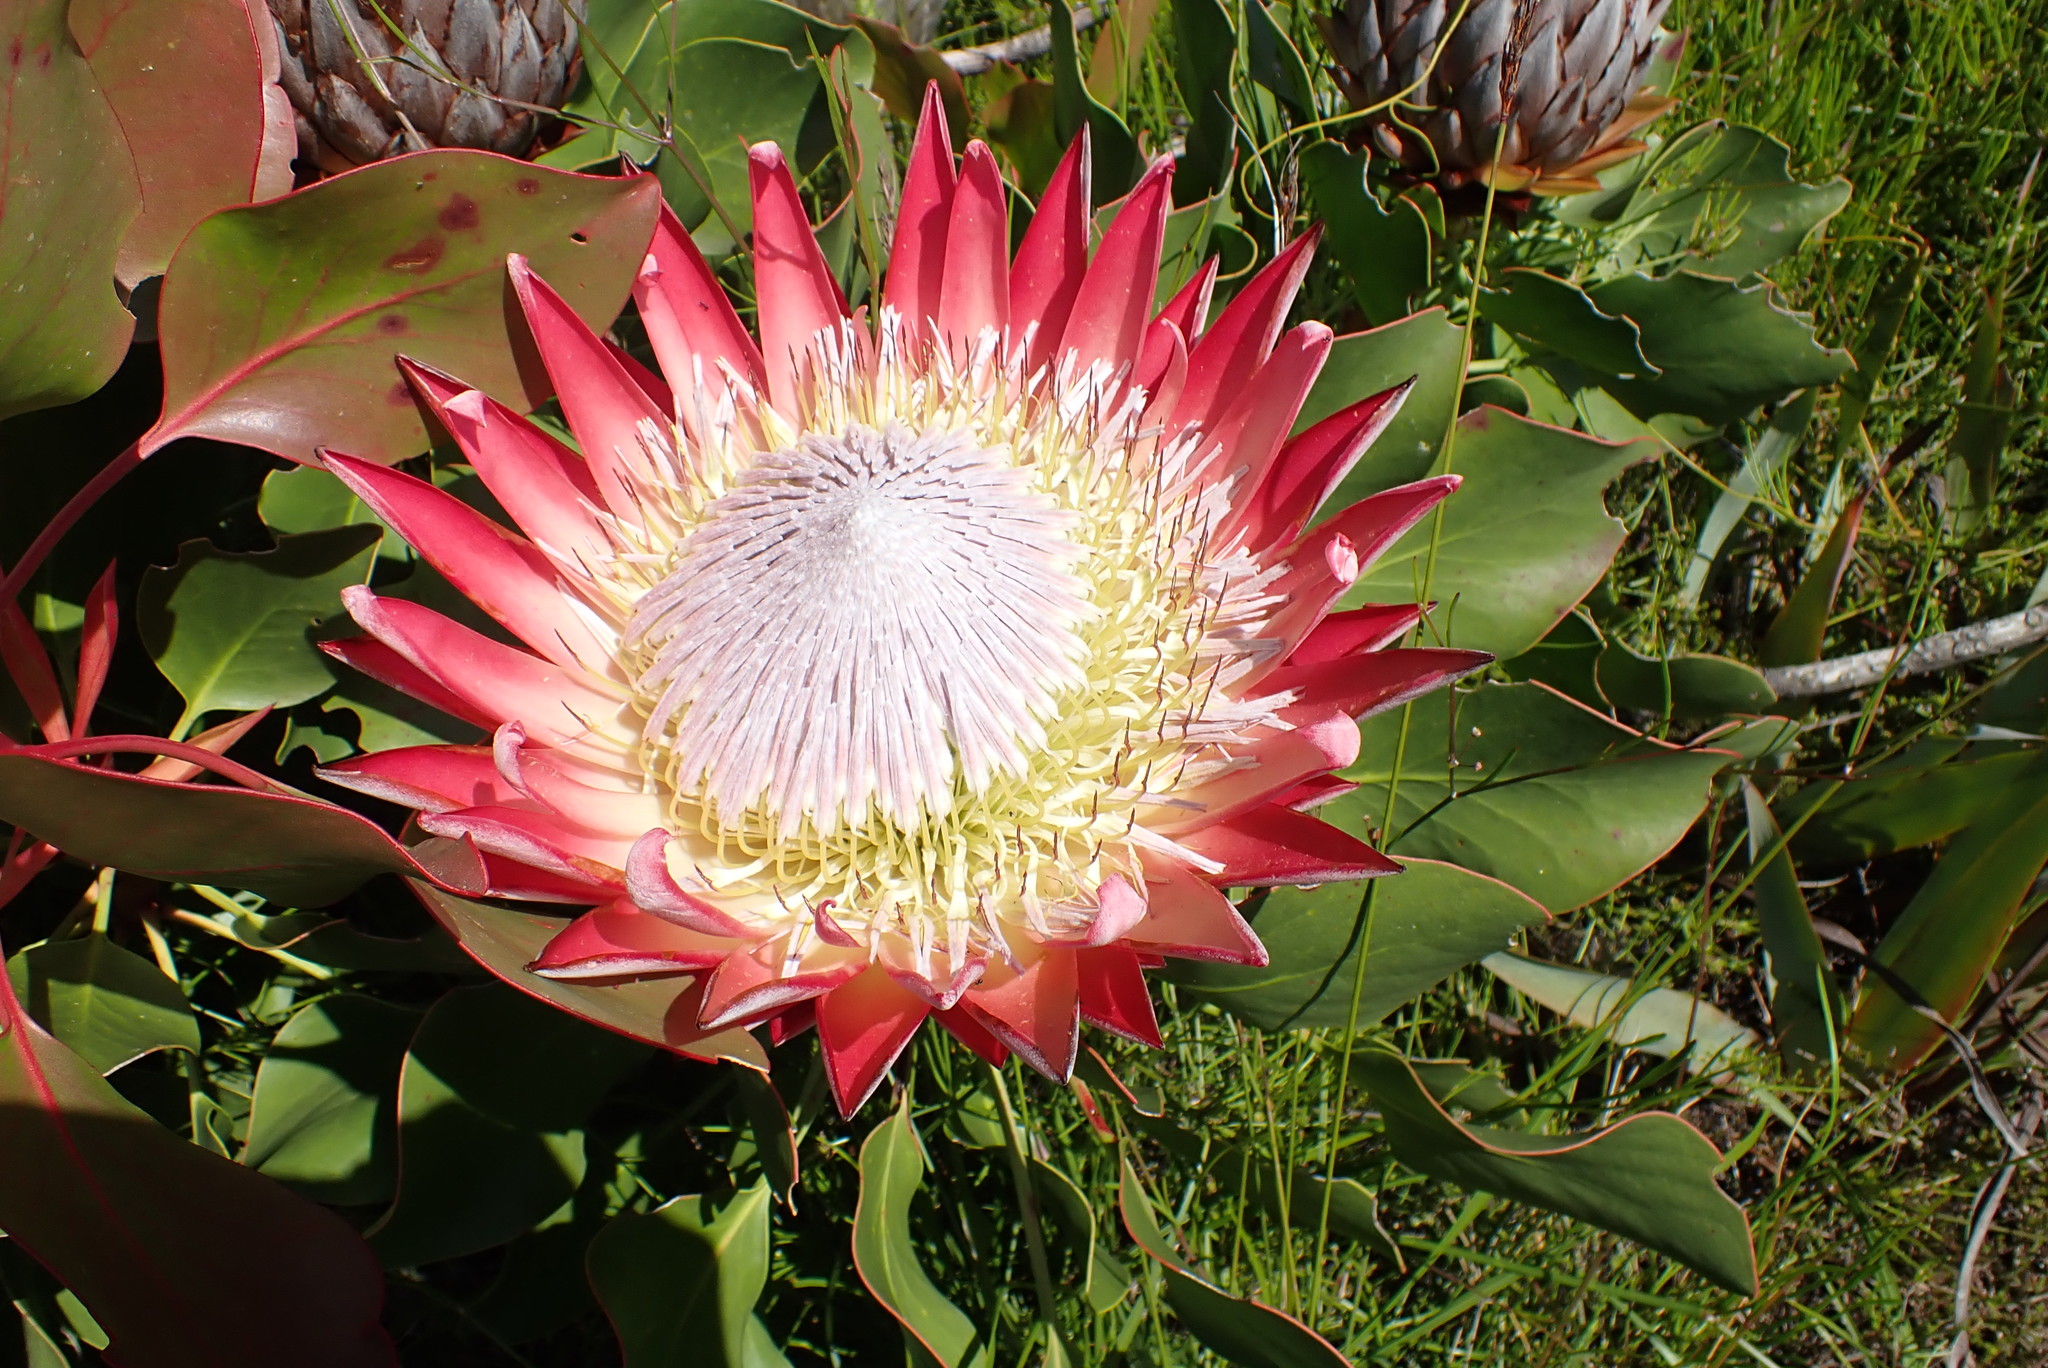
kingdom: Plantae
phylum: Tracheophyta
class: Magnoliopsida
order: Proteales
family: Proteaceae
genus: Protea
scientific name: Protea cynaroides
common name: King protea
